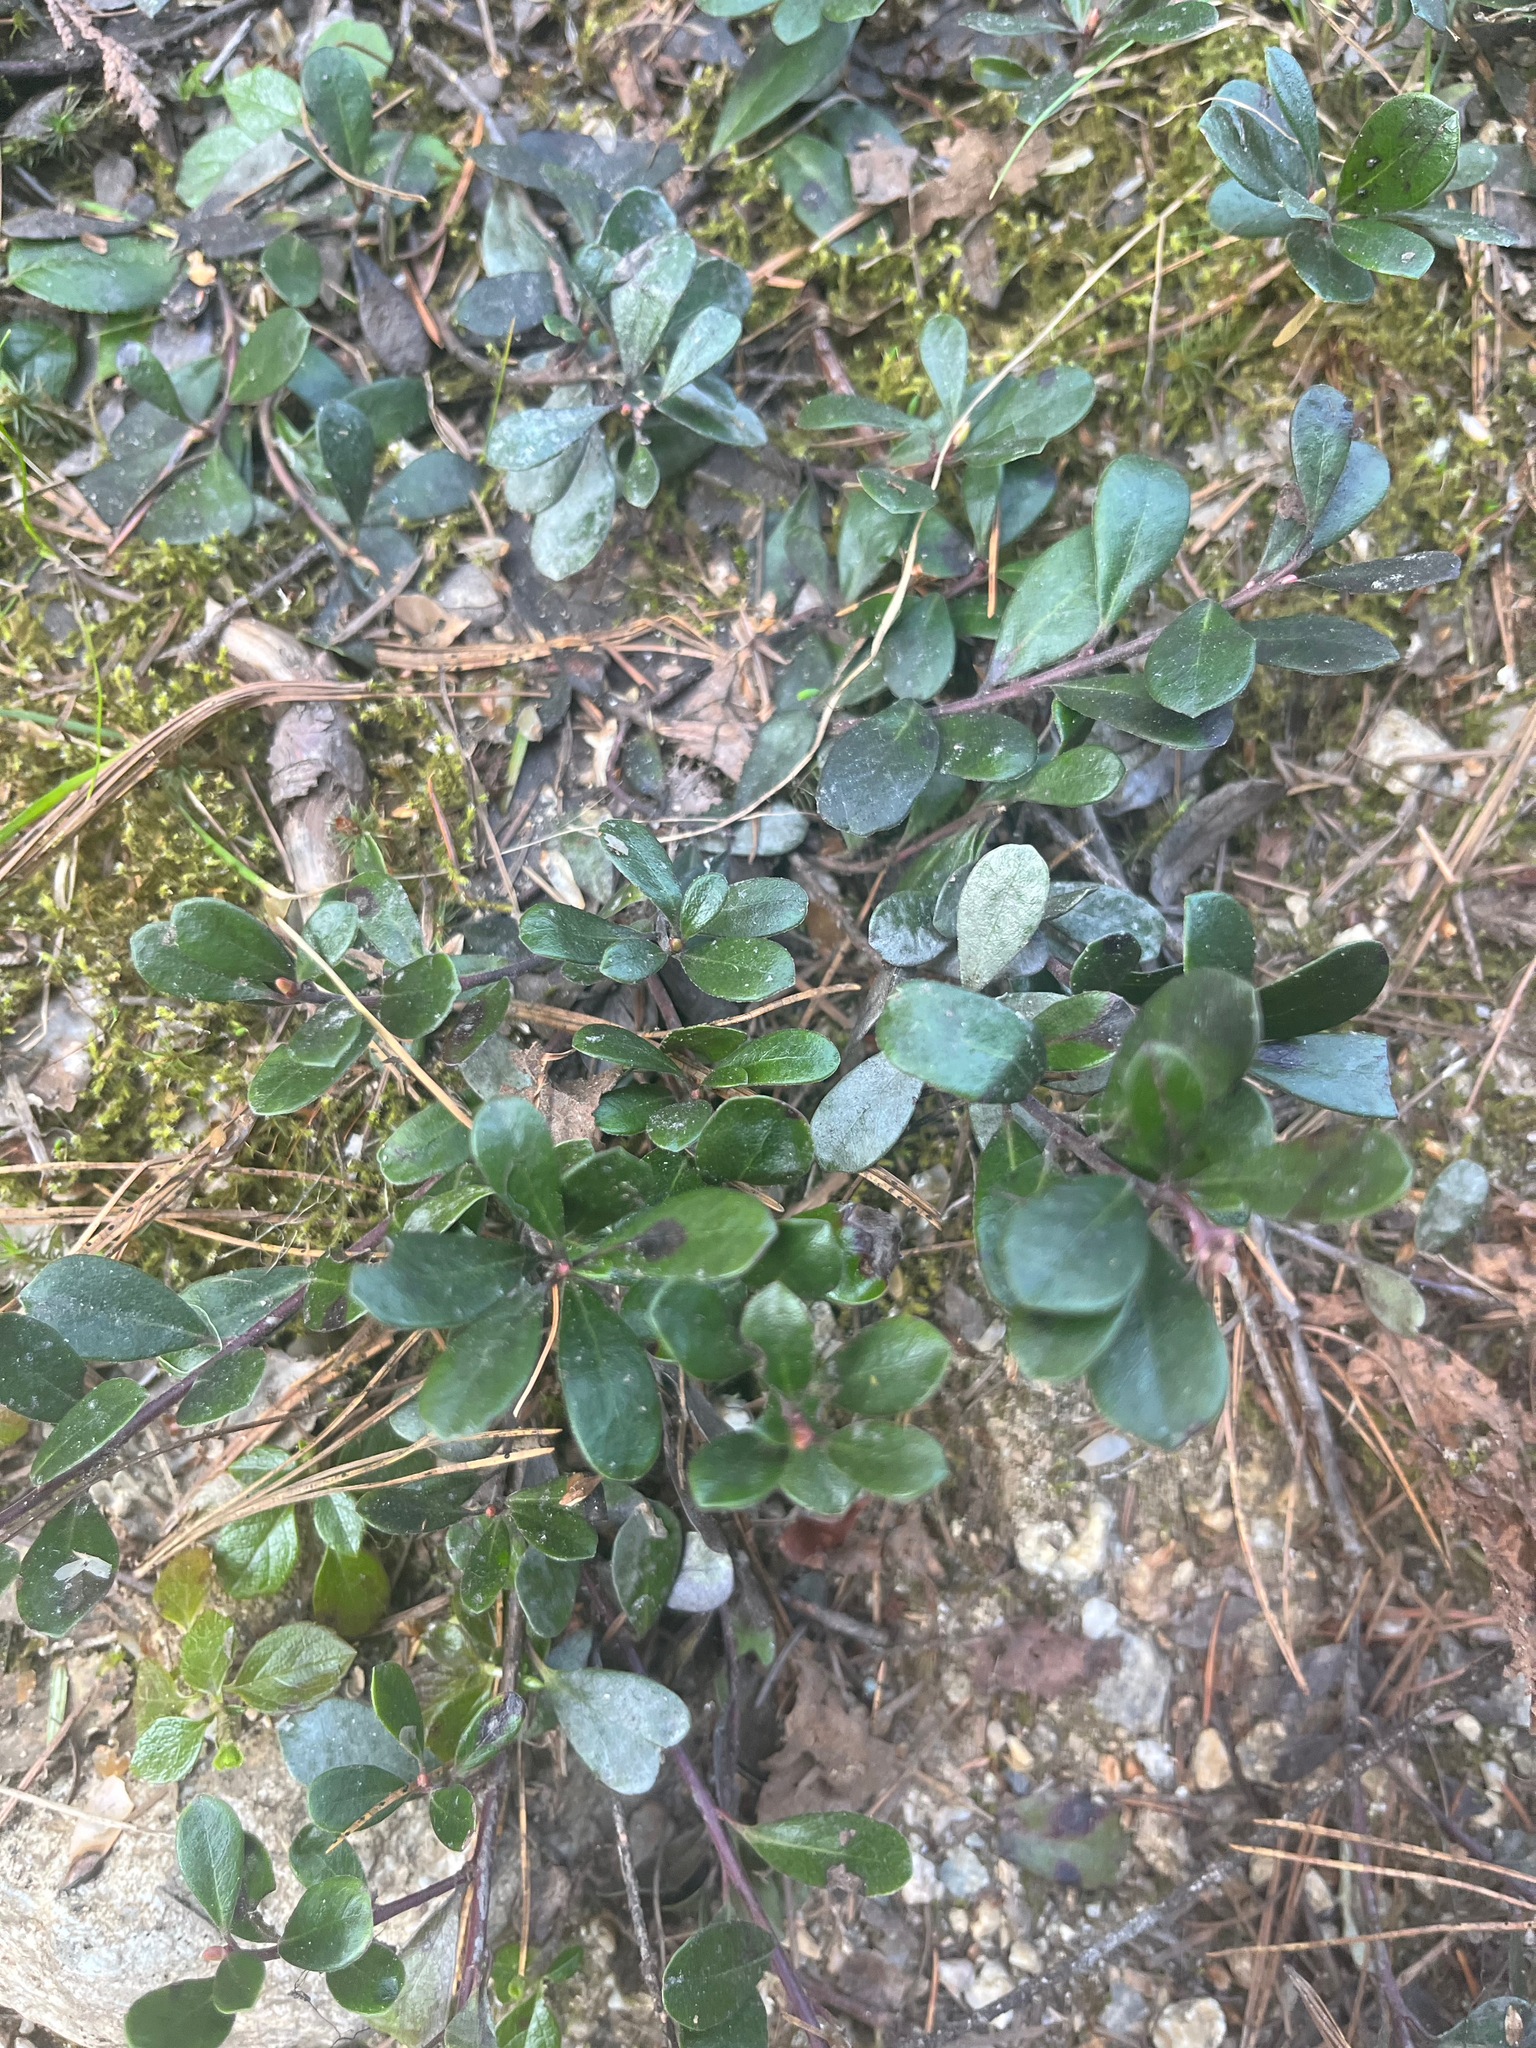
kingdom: Plantae
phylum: Tracheophyta
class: Magnoliopsida
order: Ericales
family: Ericaceae
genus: Arctostaphylos
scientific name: Arctostaphylos uva-ursi
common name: Bearberry
